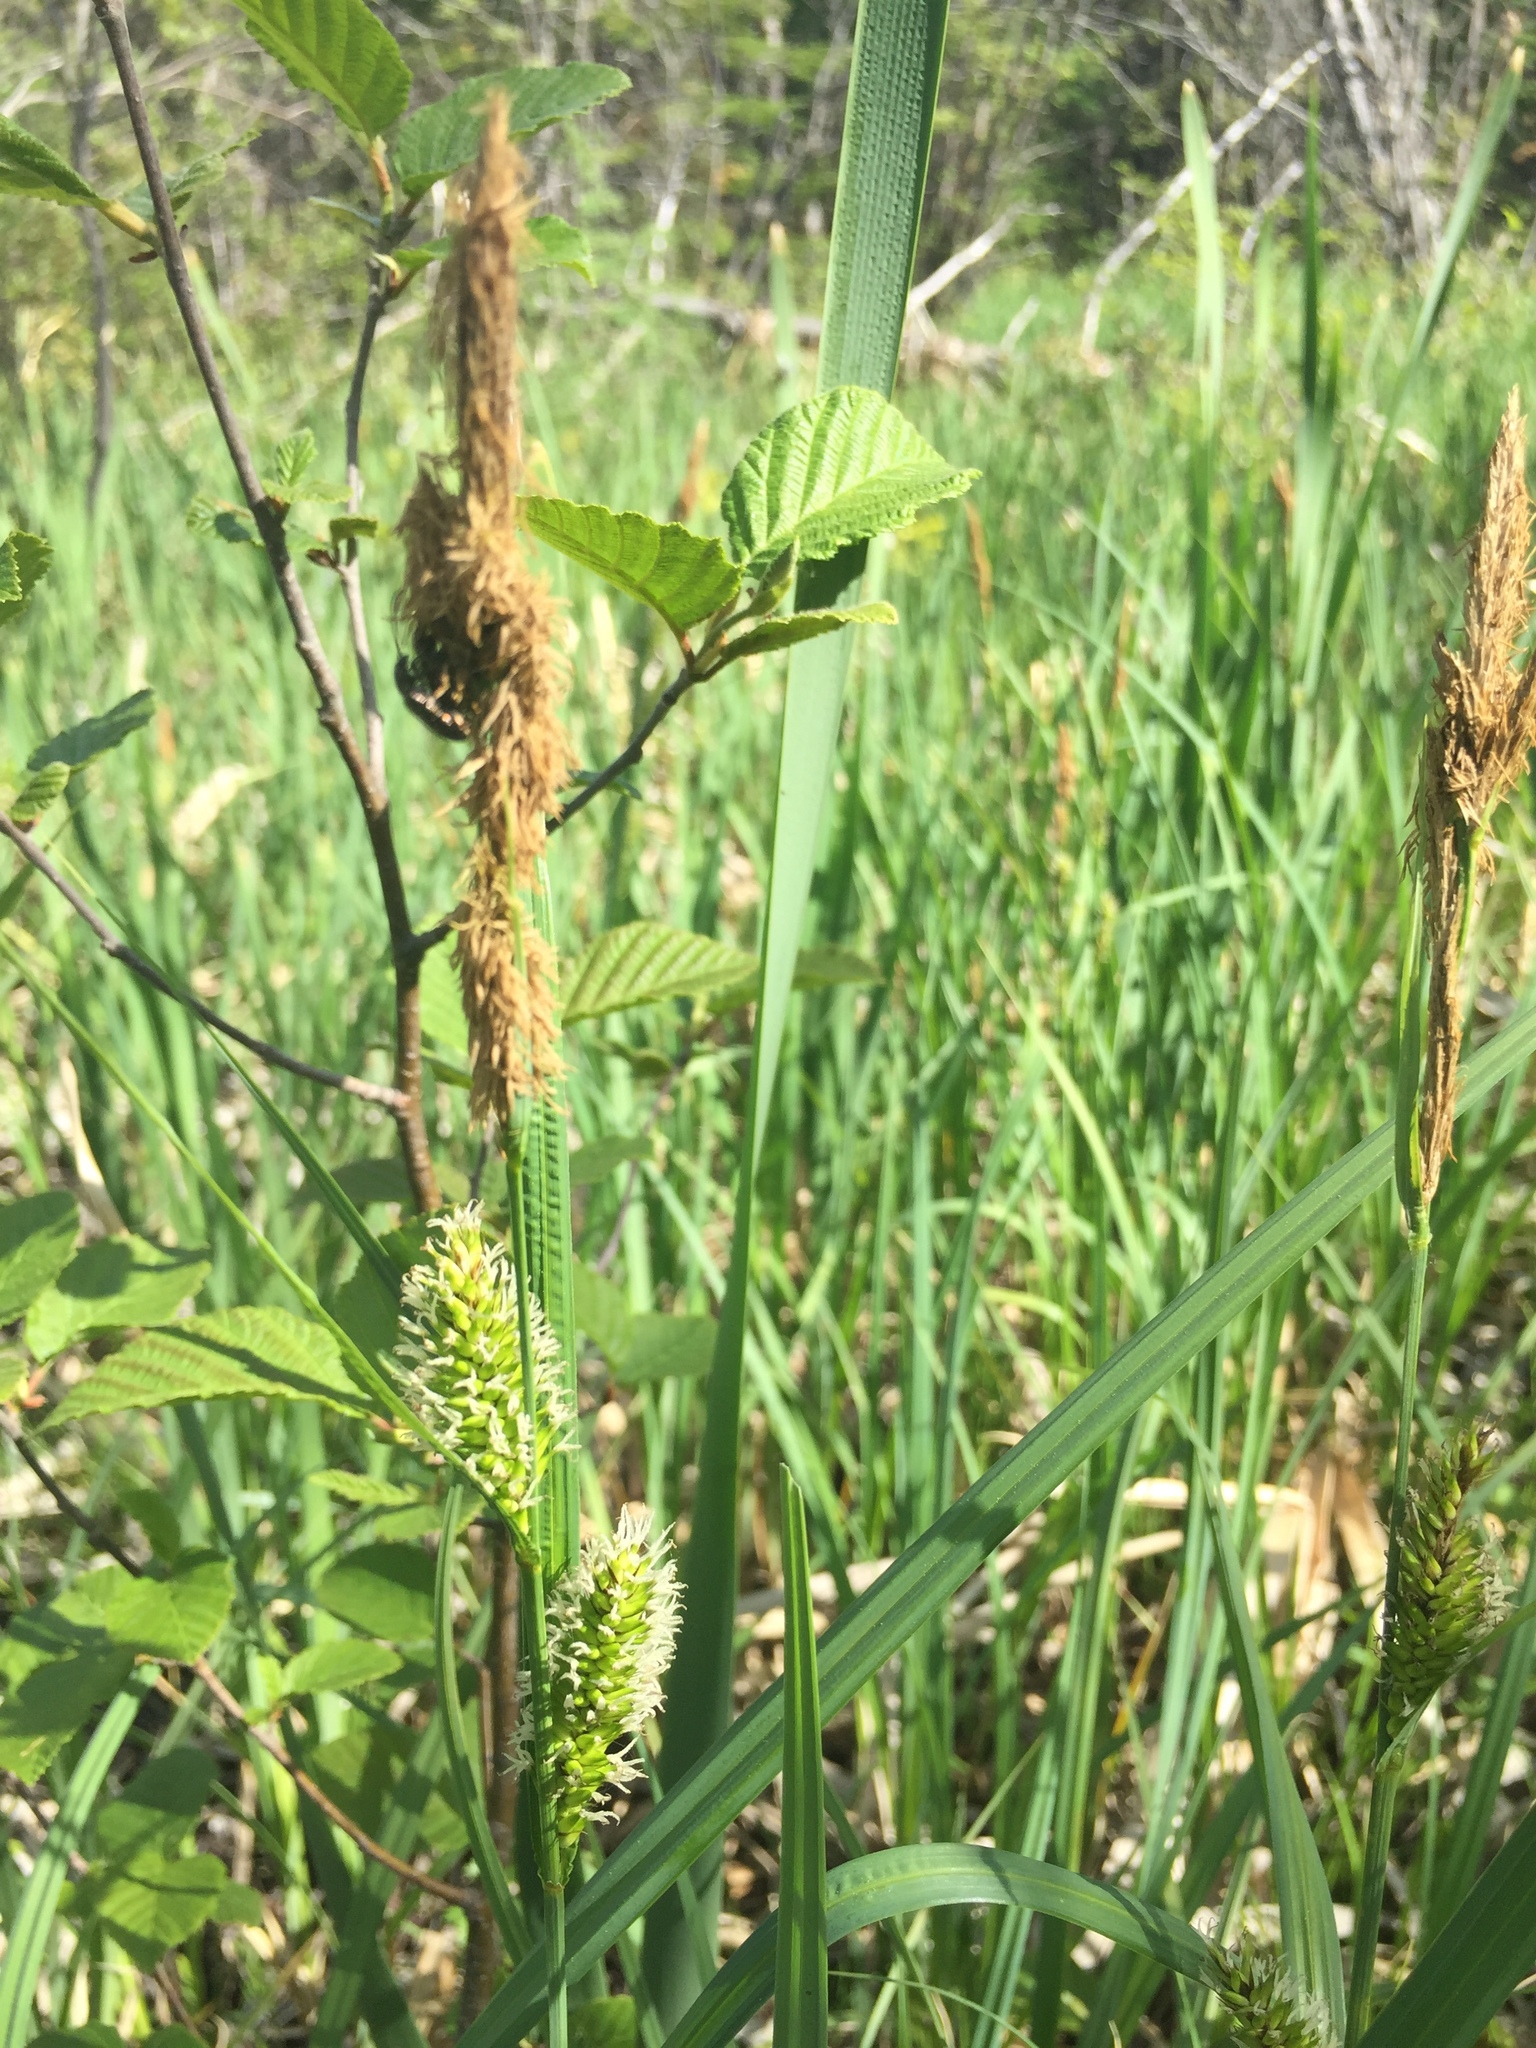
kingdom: Plantae
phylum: Tracheophyta
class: Liliopsida
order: Poales
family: Cyperaceae
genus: Carex
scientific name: Carex lacustris
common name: Common lake sedge
